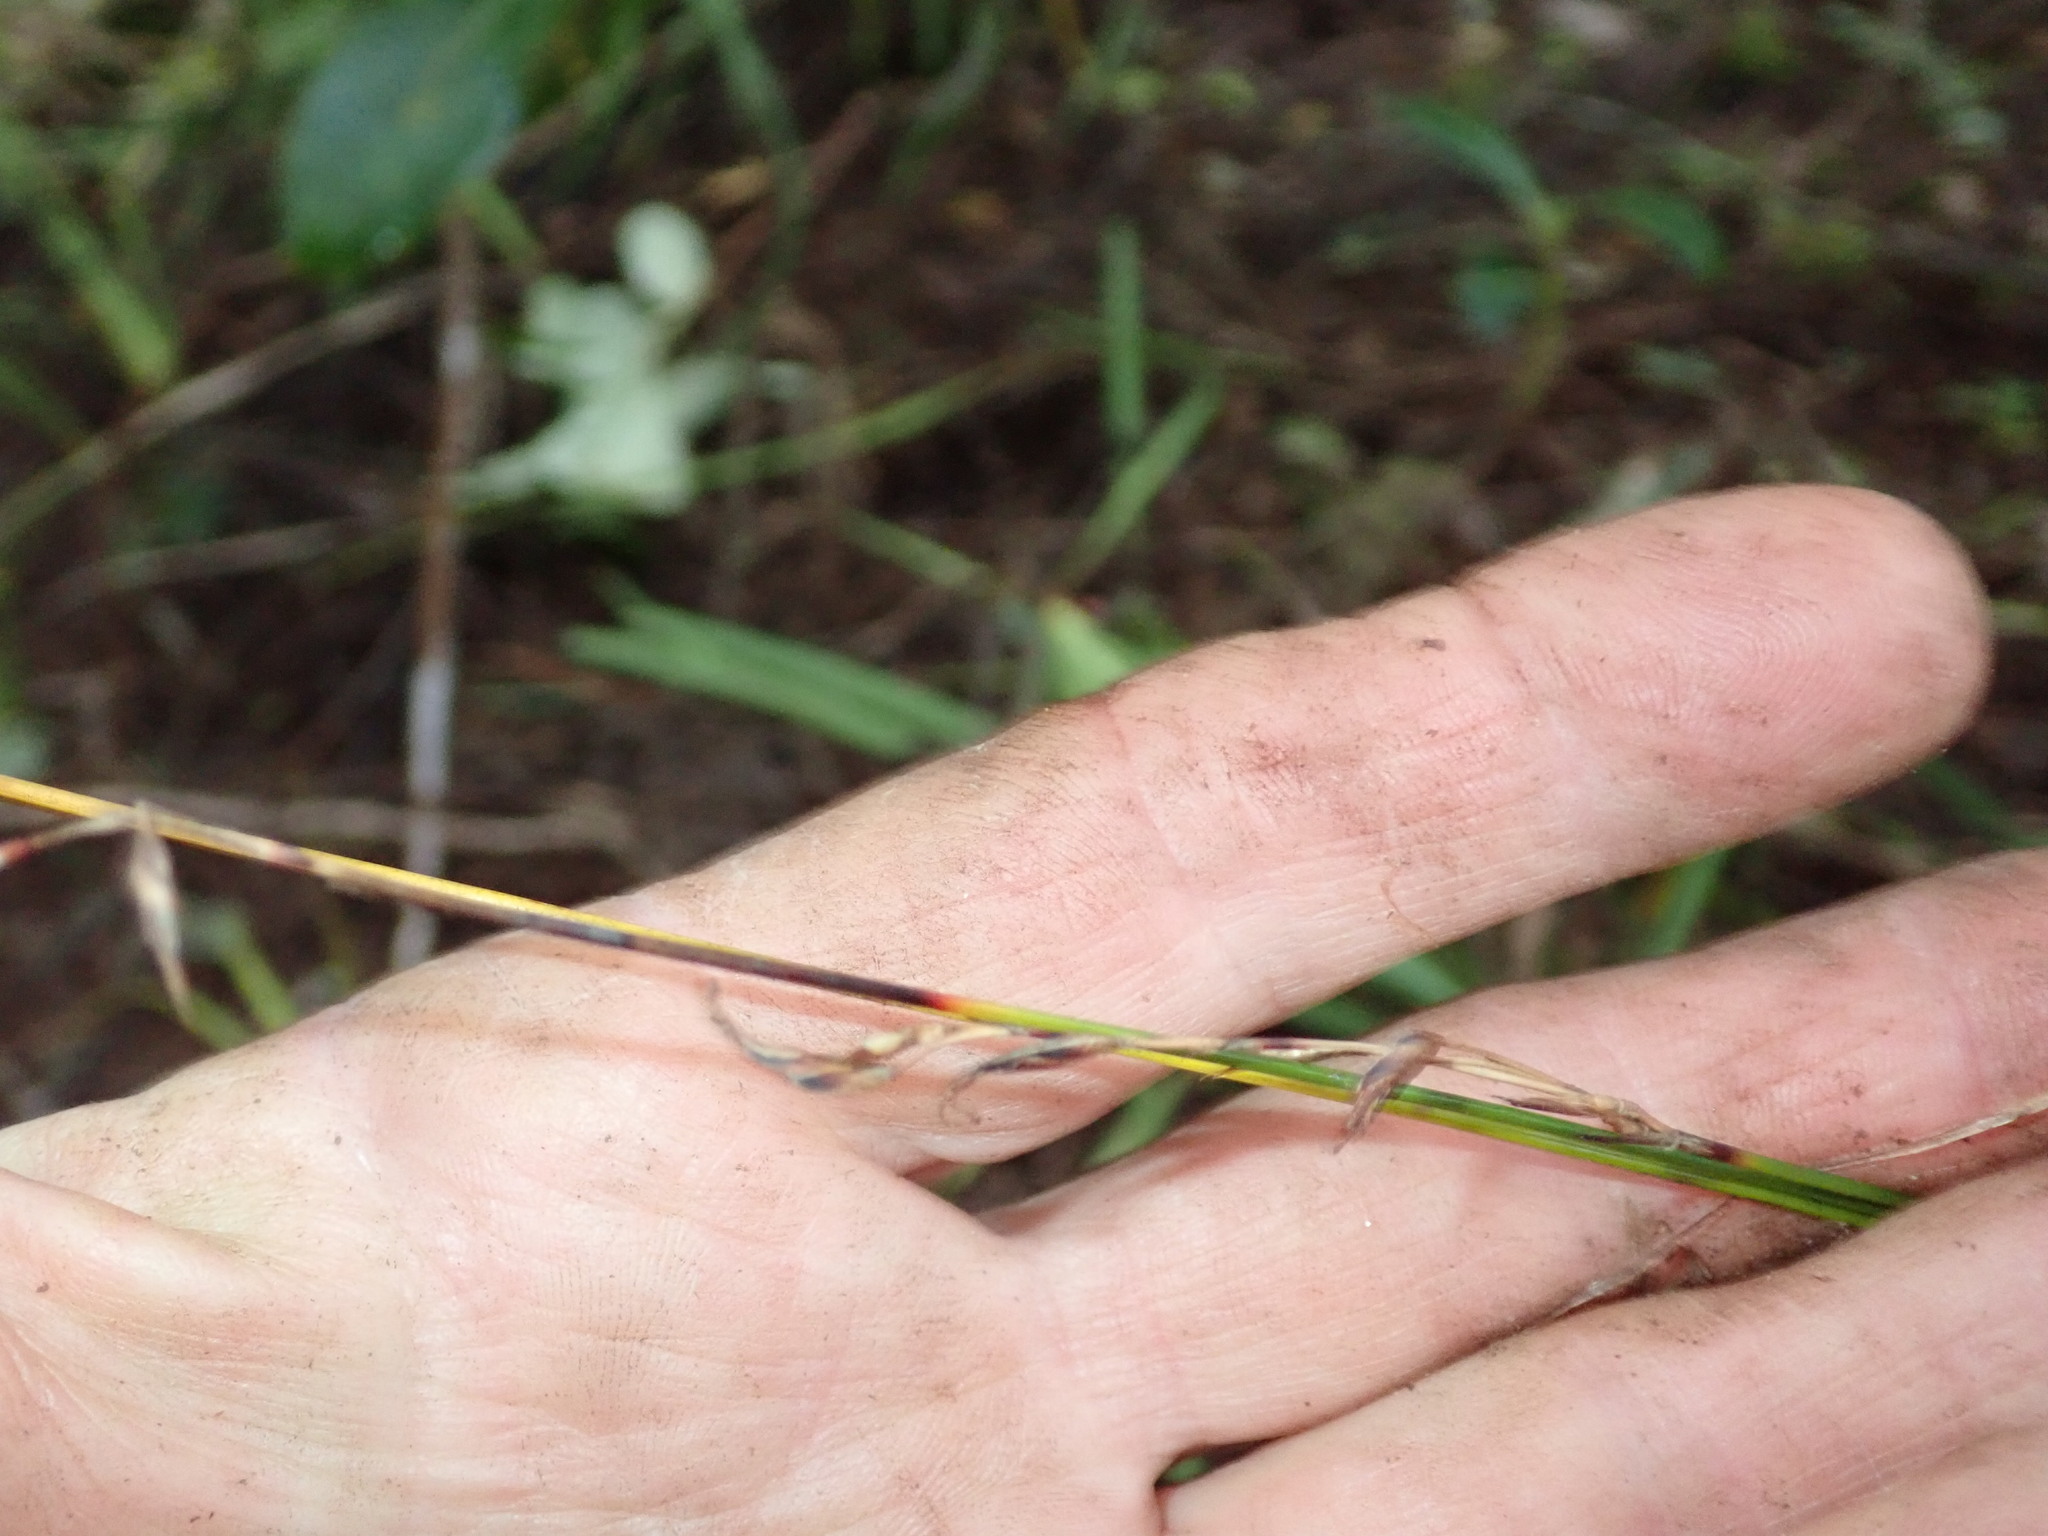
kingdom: Plantae
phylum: Tracheophyta
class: Liliopsida
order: Poales
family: Cyperaceae
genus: Schoenus
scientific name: Schoenus tendo
